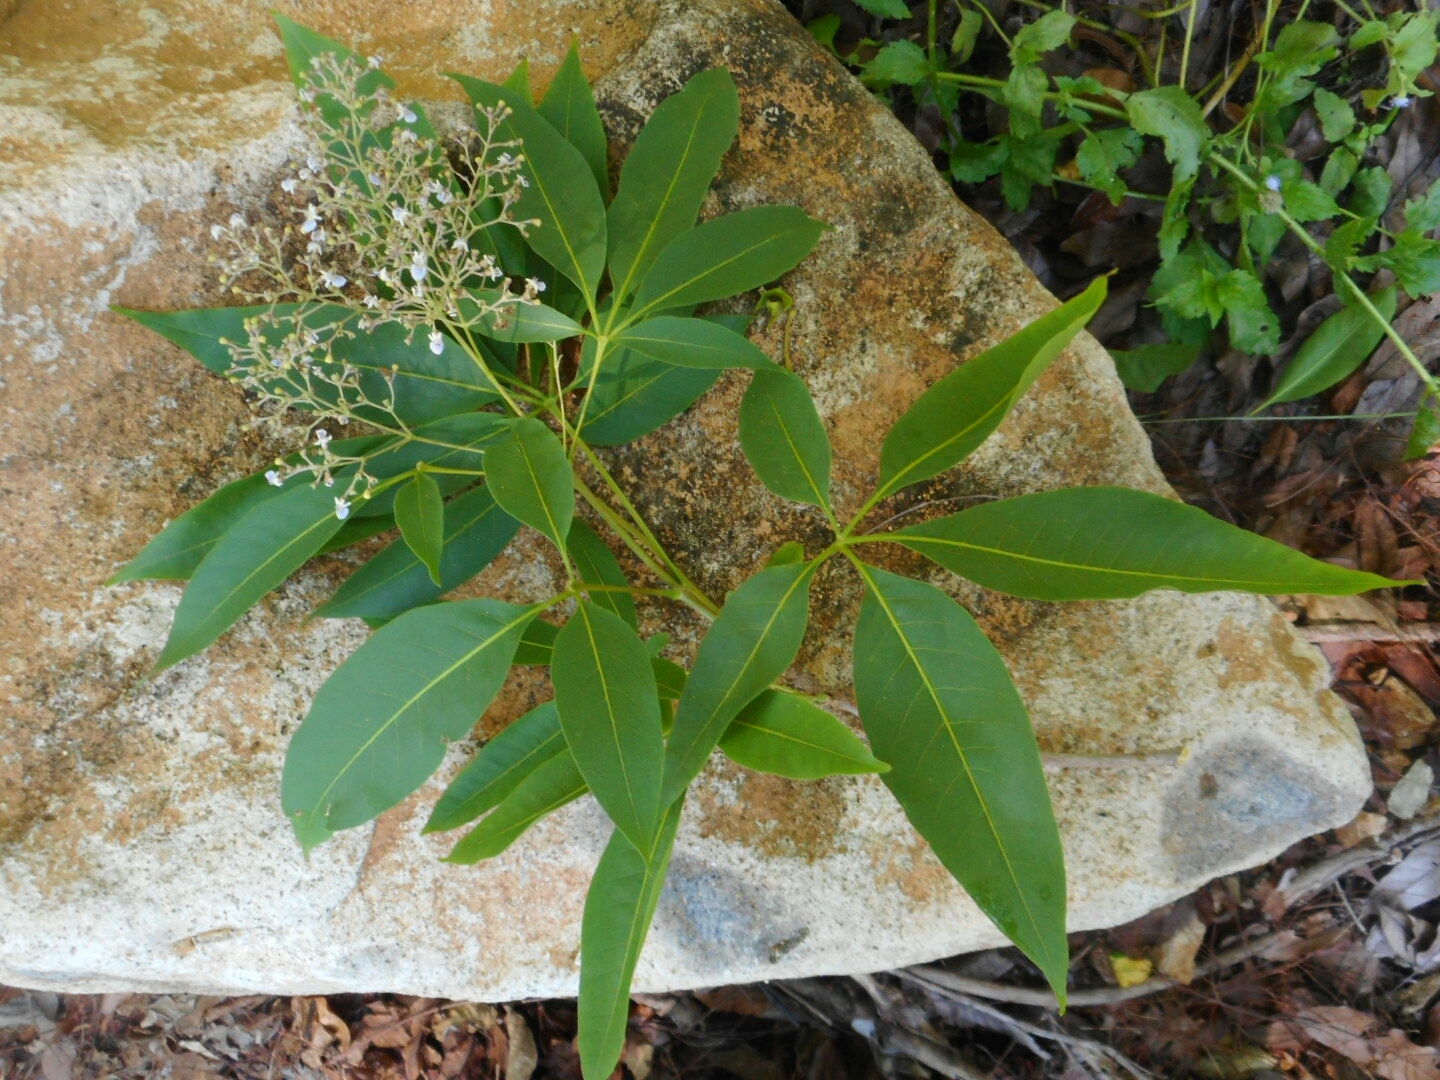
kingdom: Plantae
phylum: Tracheophyta
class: Magnoliopsida
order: Lamiales
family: Lamiaceae
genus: Vitex
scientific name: Vitex negundo
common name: Chinese chastetree
